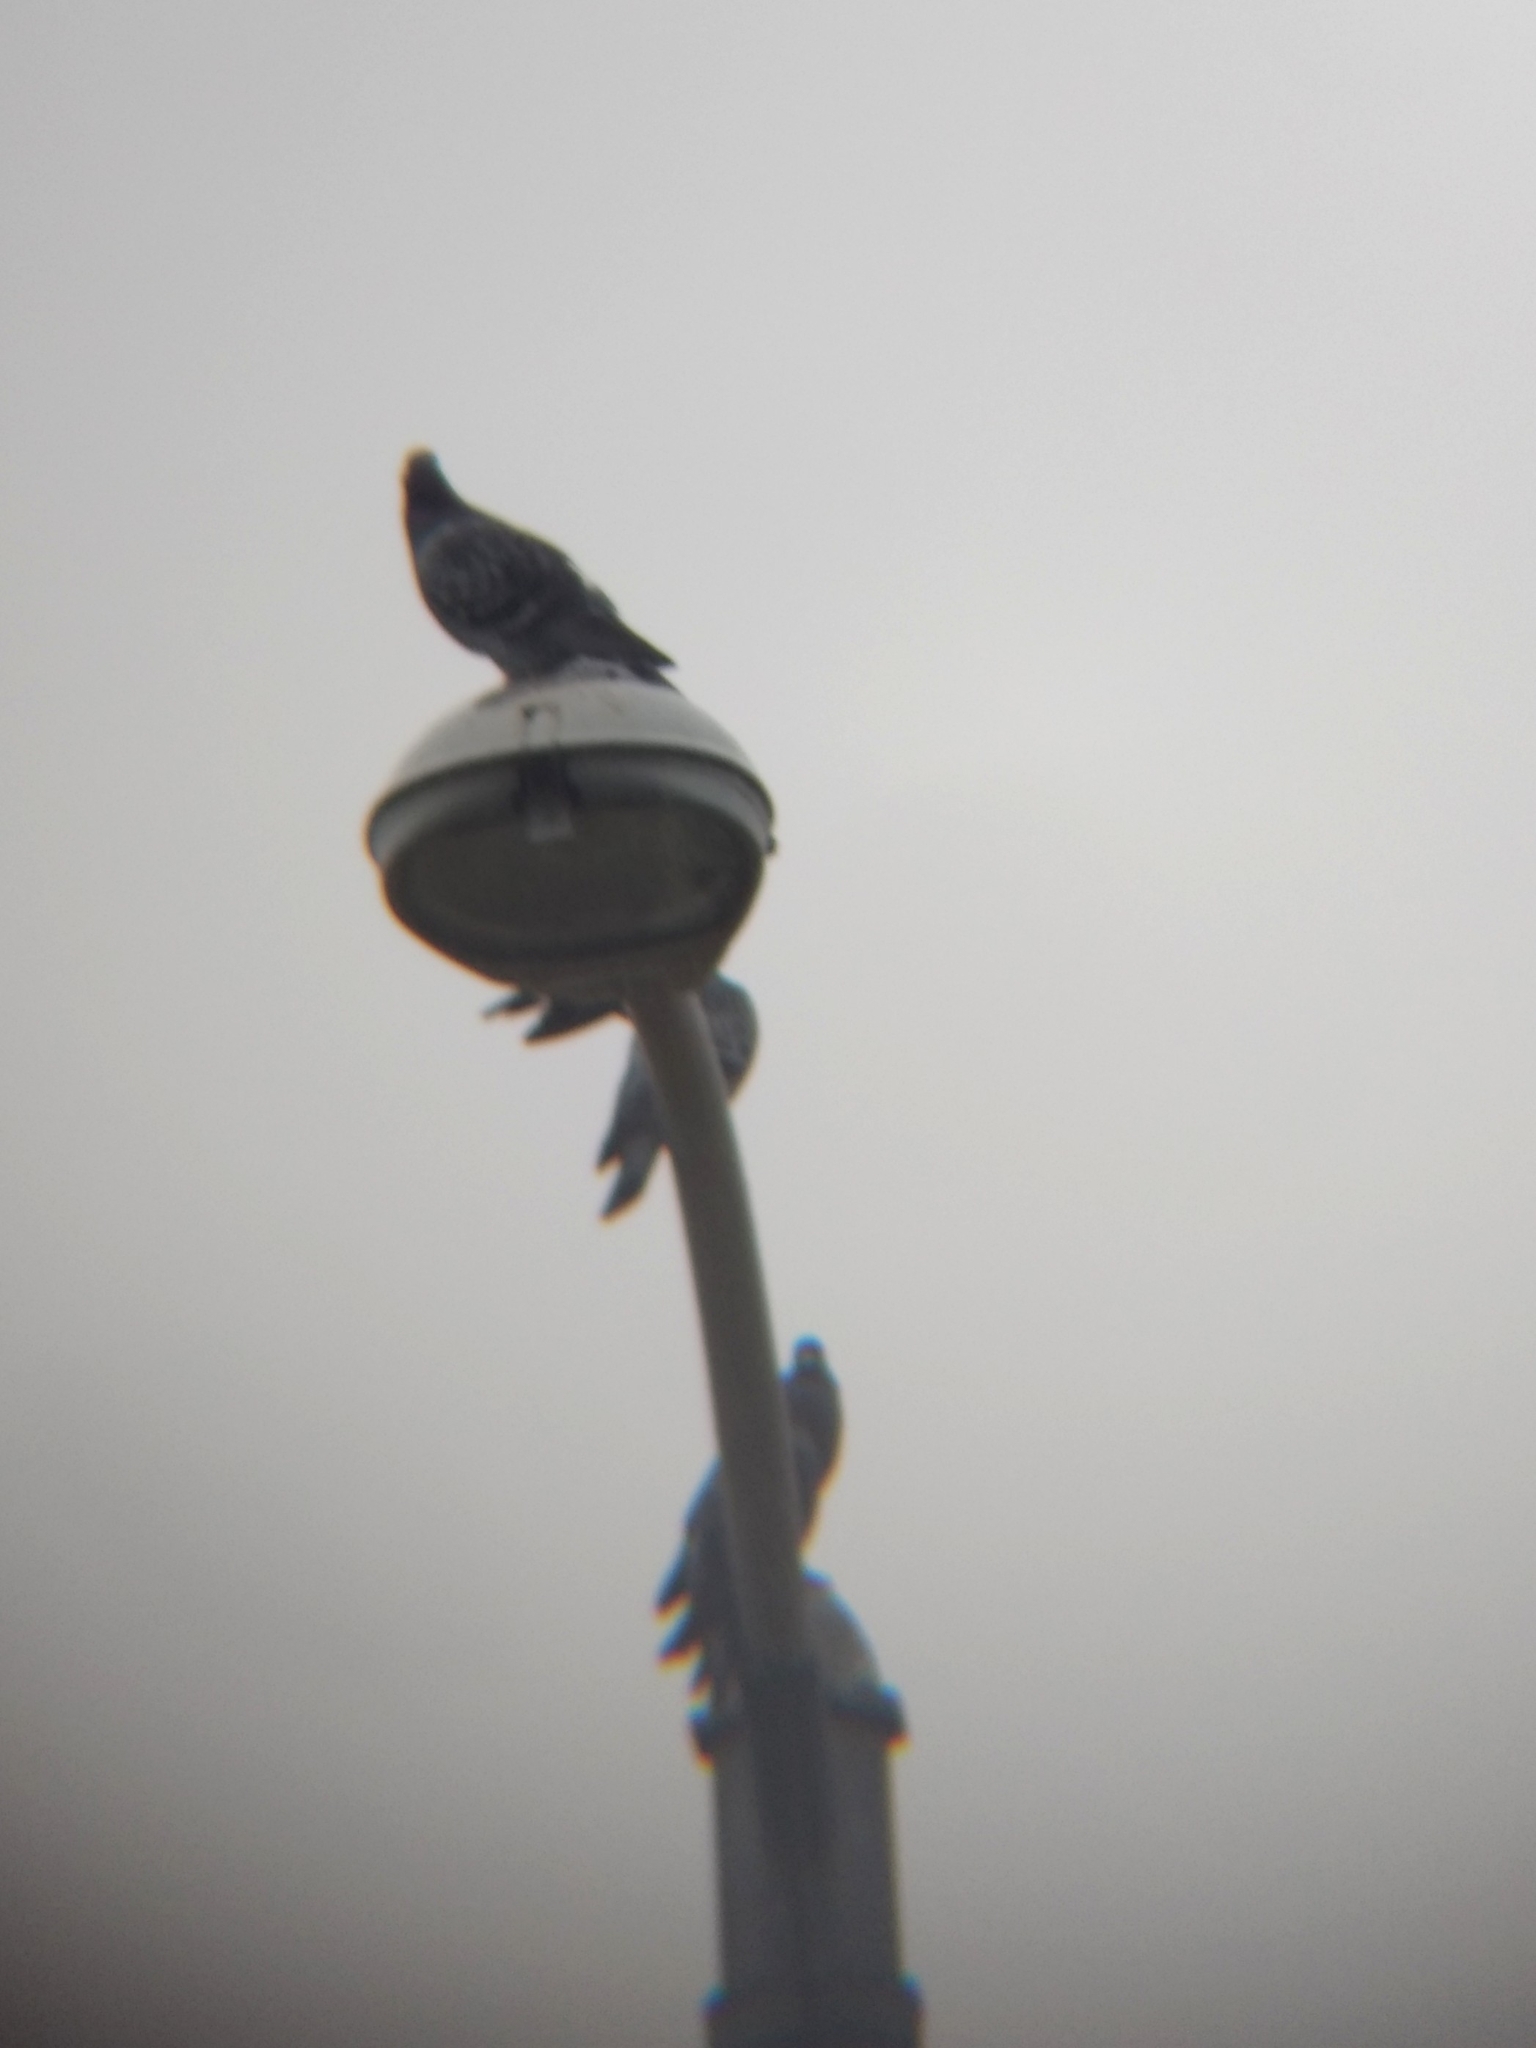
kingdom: Animalia
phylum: Chordata
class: Aves
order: Columbiformes
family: Columbidae
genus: Columba
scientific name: Columba livia
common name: Rock pigeon
